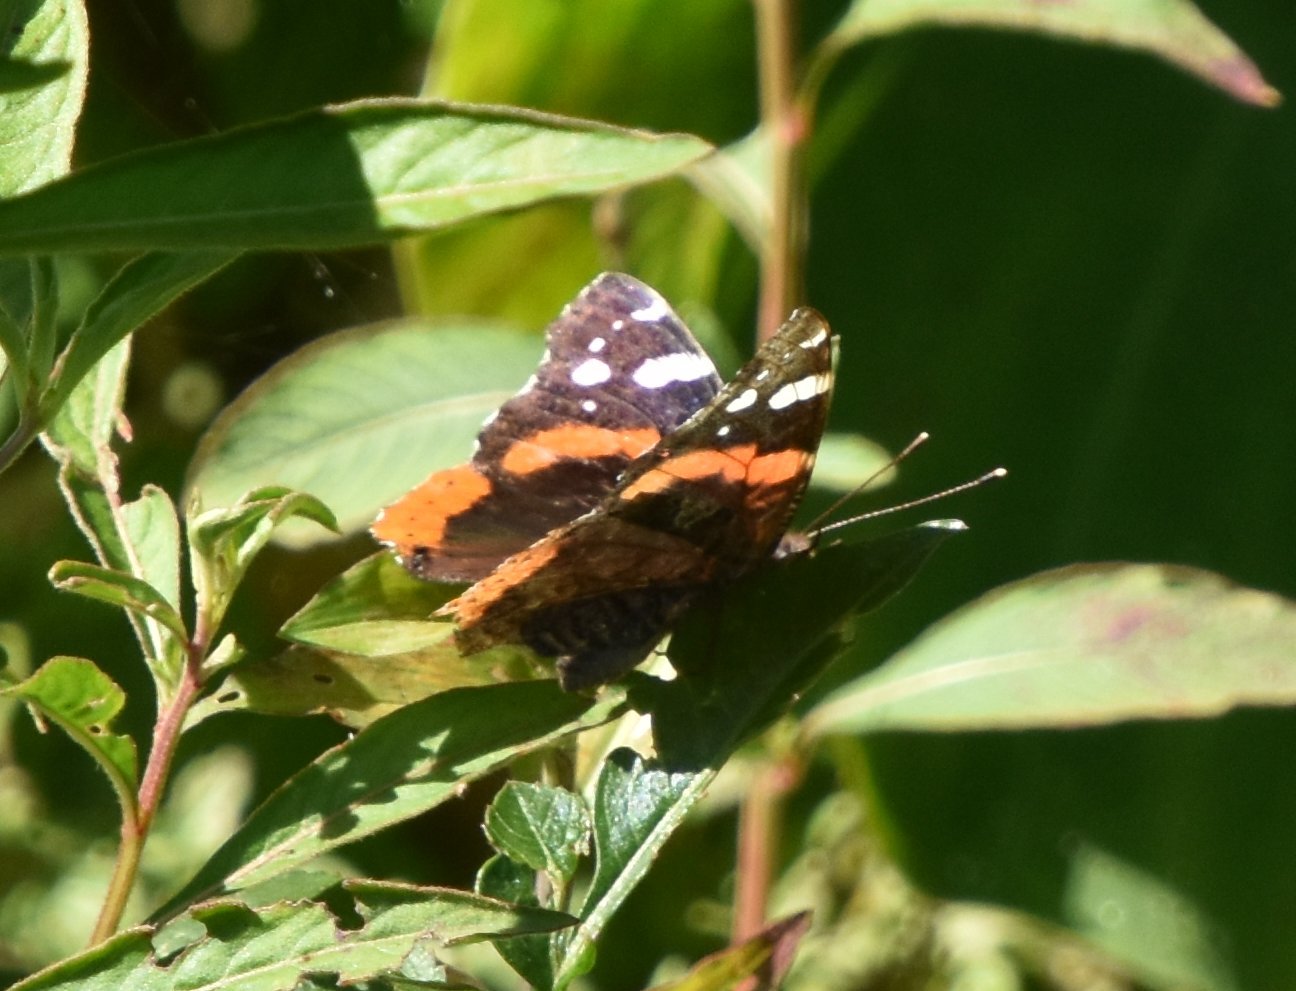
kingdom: Animalia
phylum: Arthropoda
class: Insecta
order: Lepidoptera
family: Nymphalidae
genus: Vanessa
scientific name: Vanessa atalanta
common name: Red admiral
